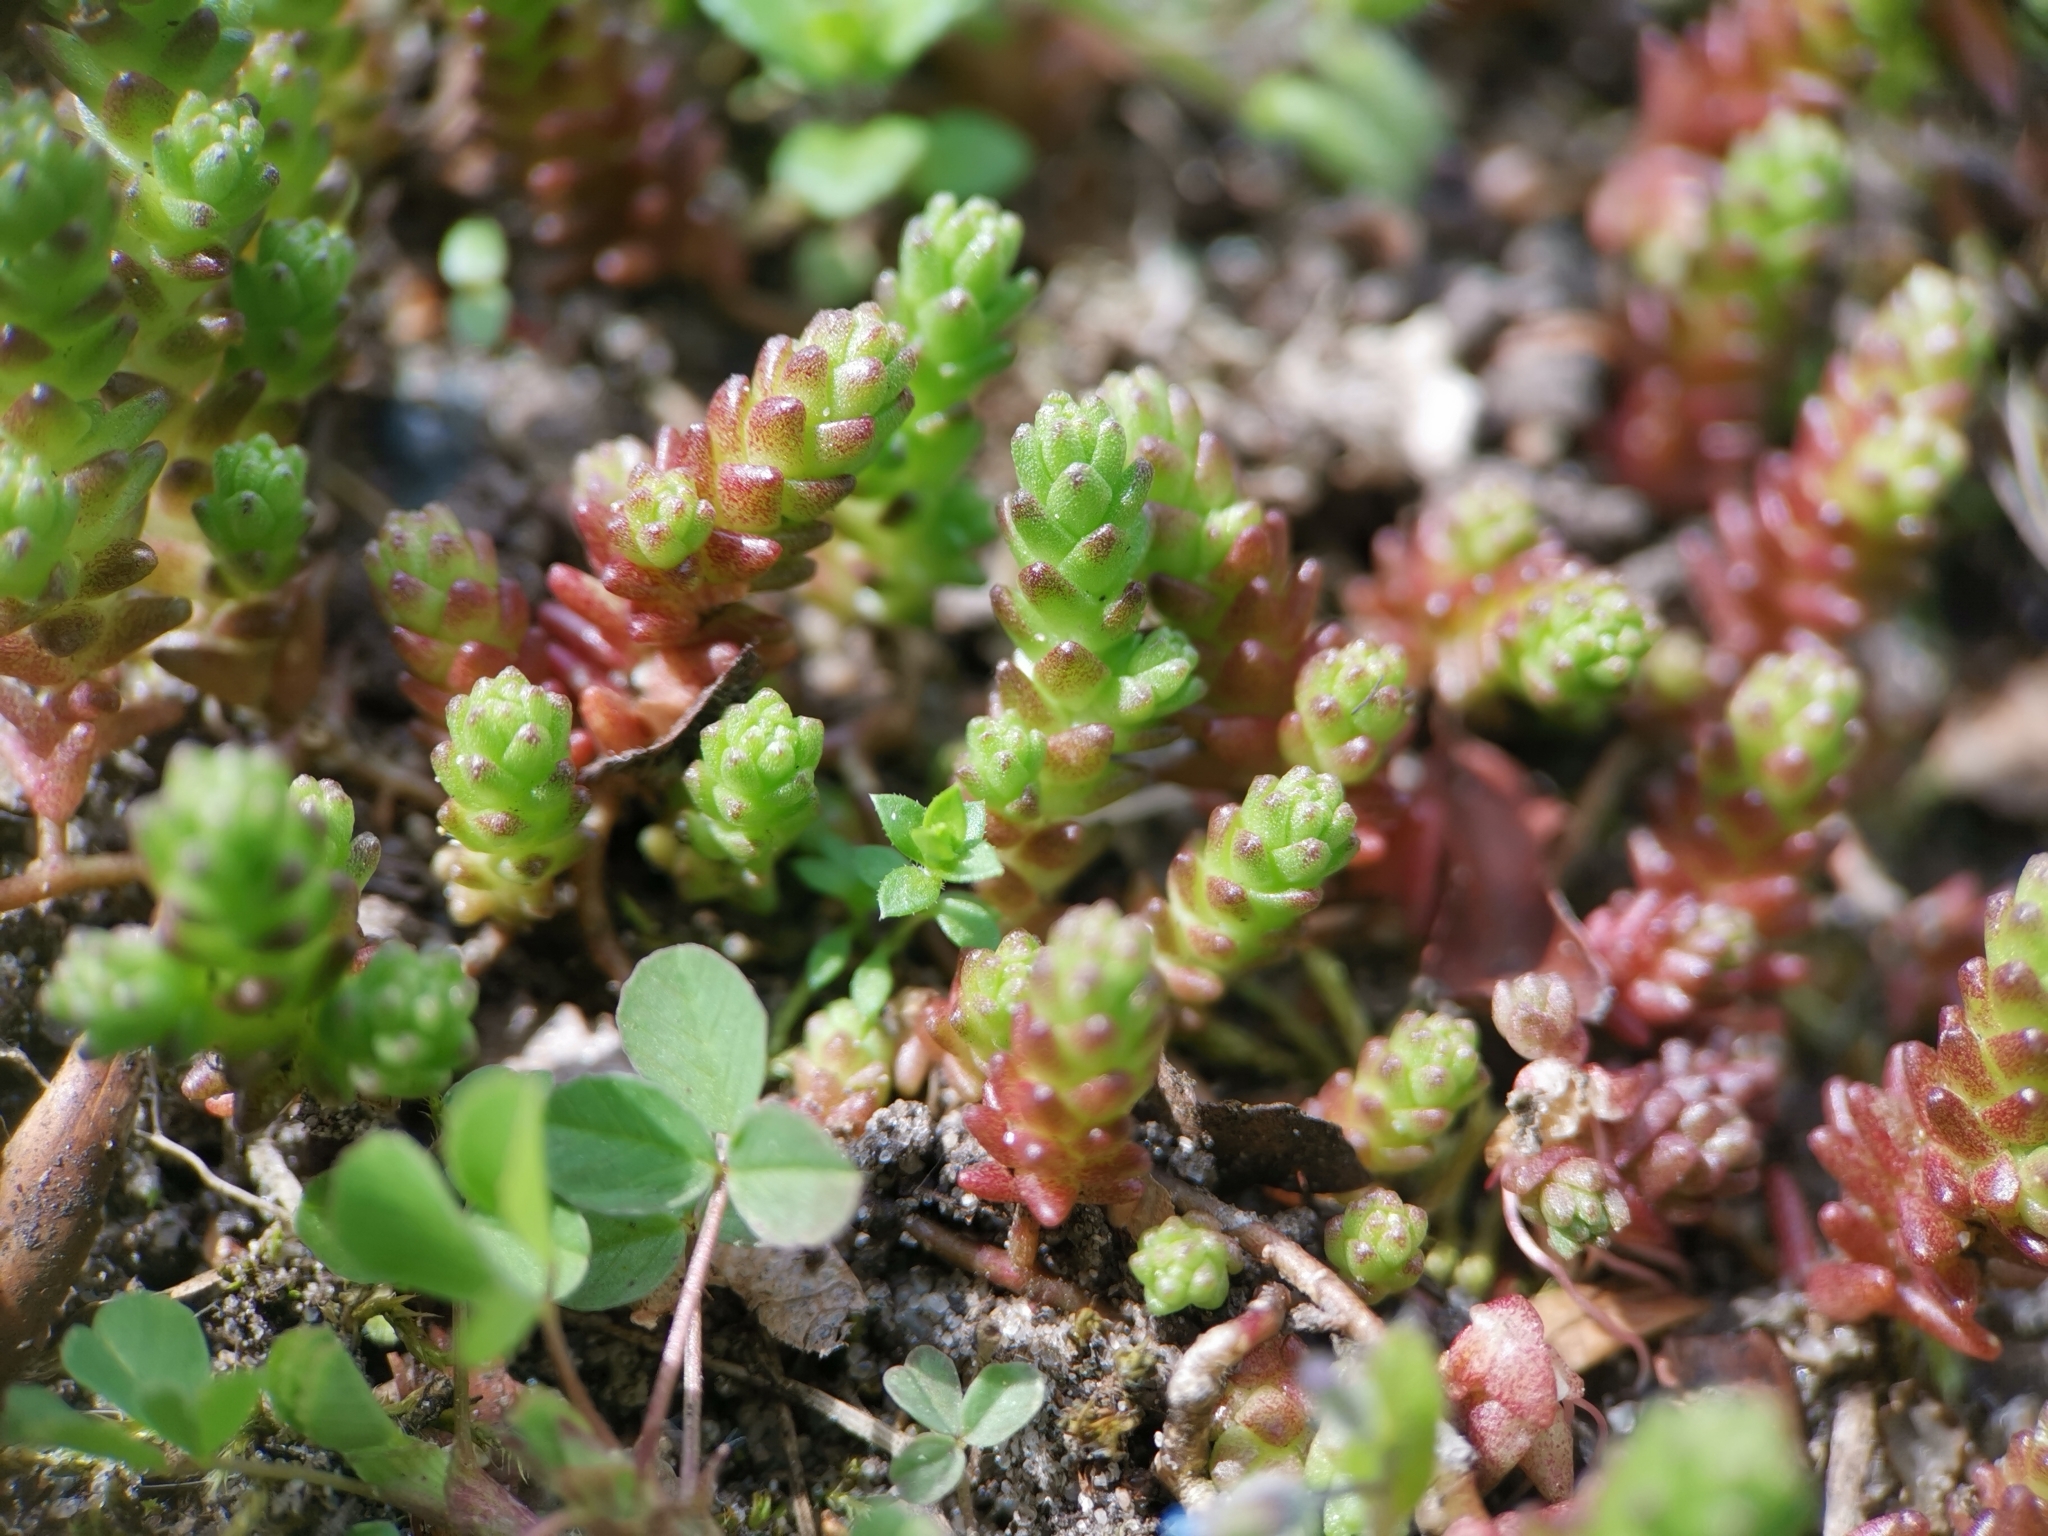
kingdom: Plantae
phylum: Tracheophyta
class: Magnoliopsida
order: Saxifragales
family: Crassulaceae
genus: Sedum
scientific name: Sedum acre
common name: Biting stonecrop
